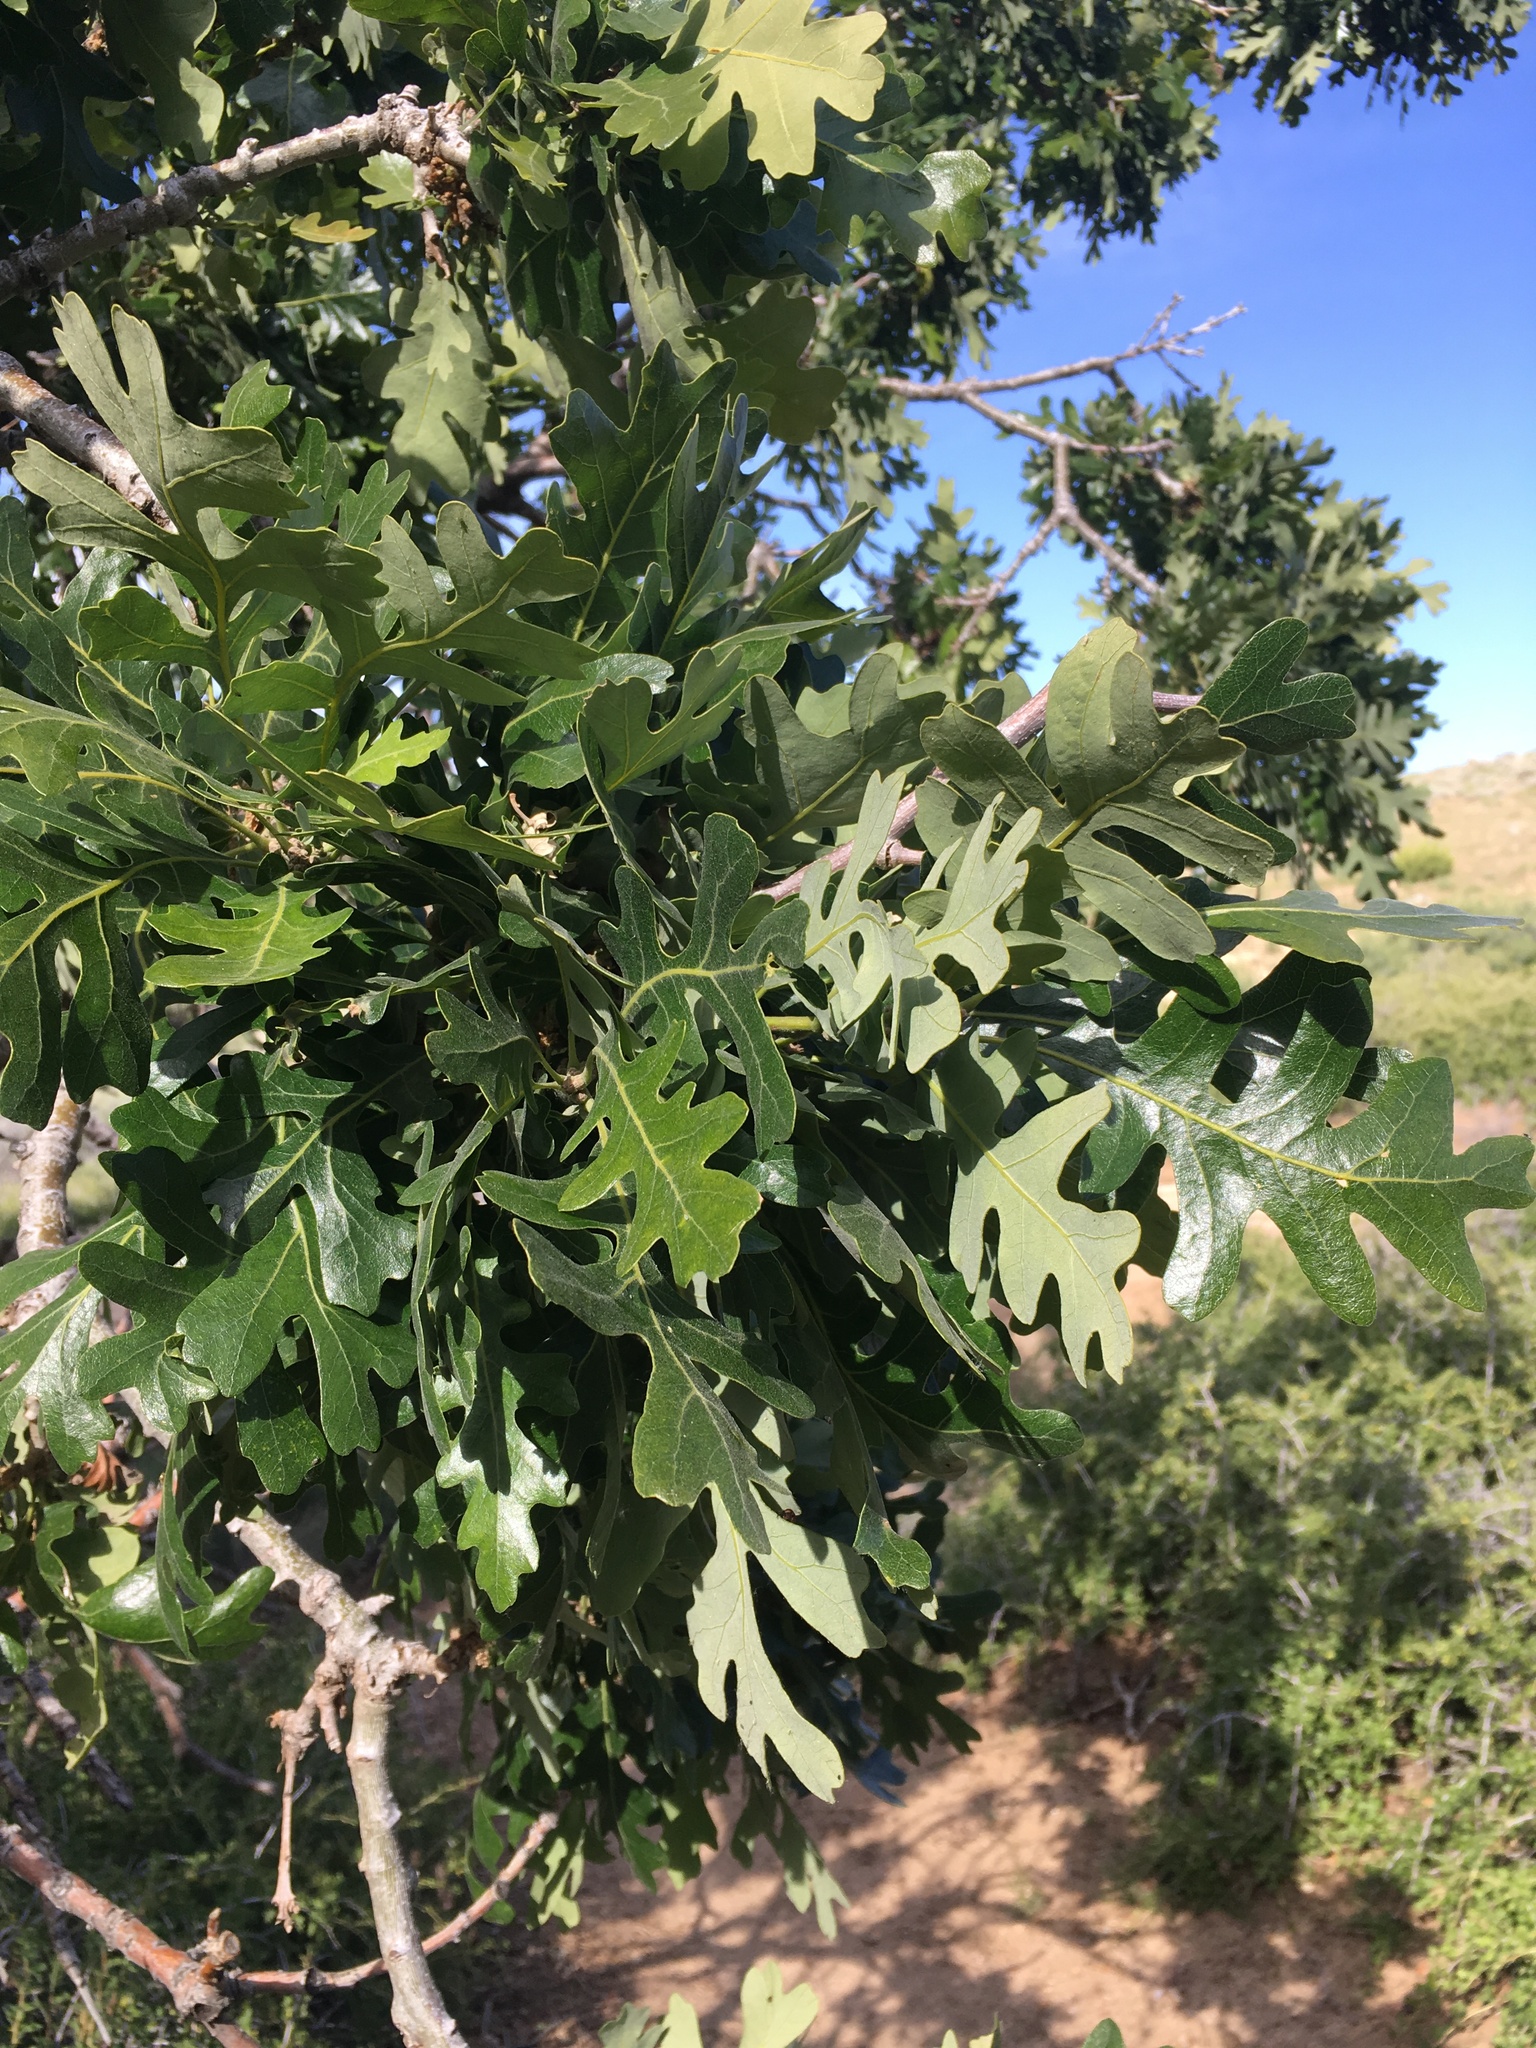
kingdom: Plantae
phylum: Tracheophyta
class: Magnoliopsida
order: Fagales
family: Fagaceae
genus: Quercus
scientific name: Quercus lobata
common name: Valley oak
